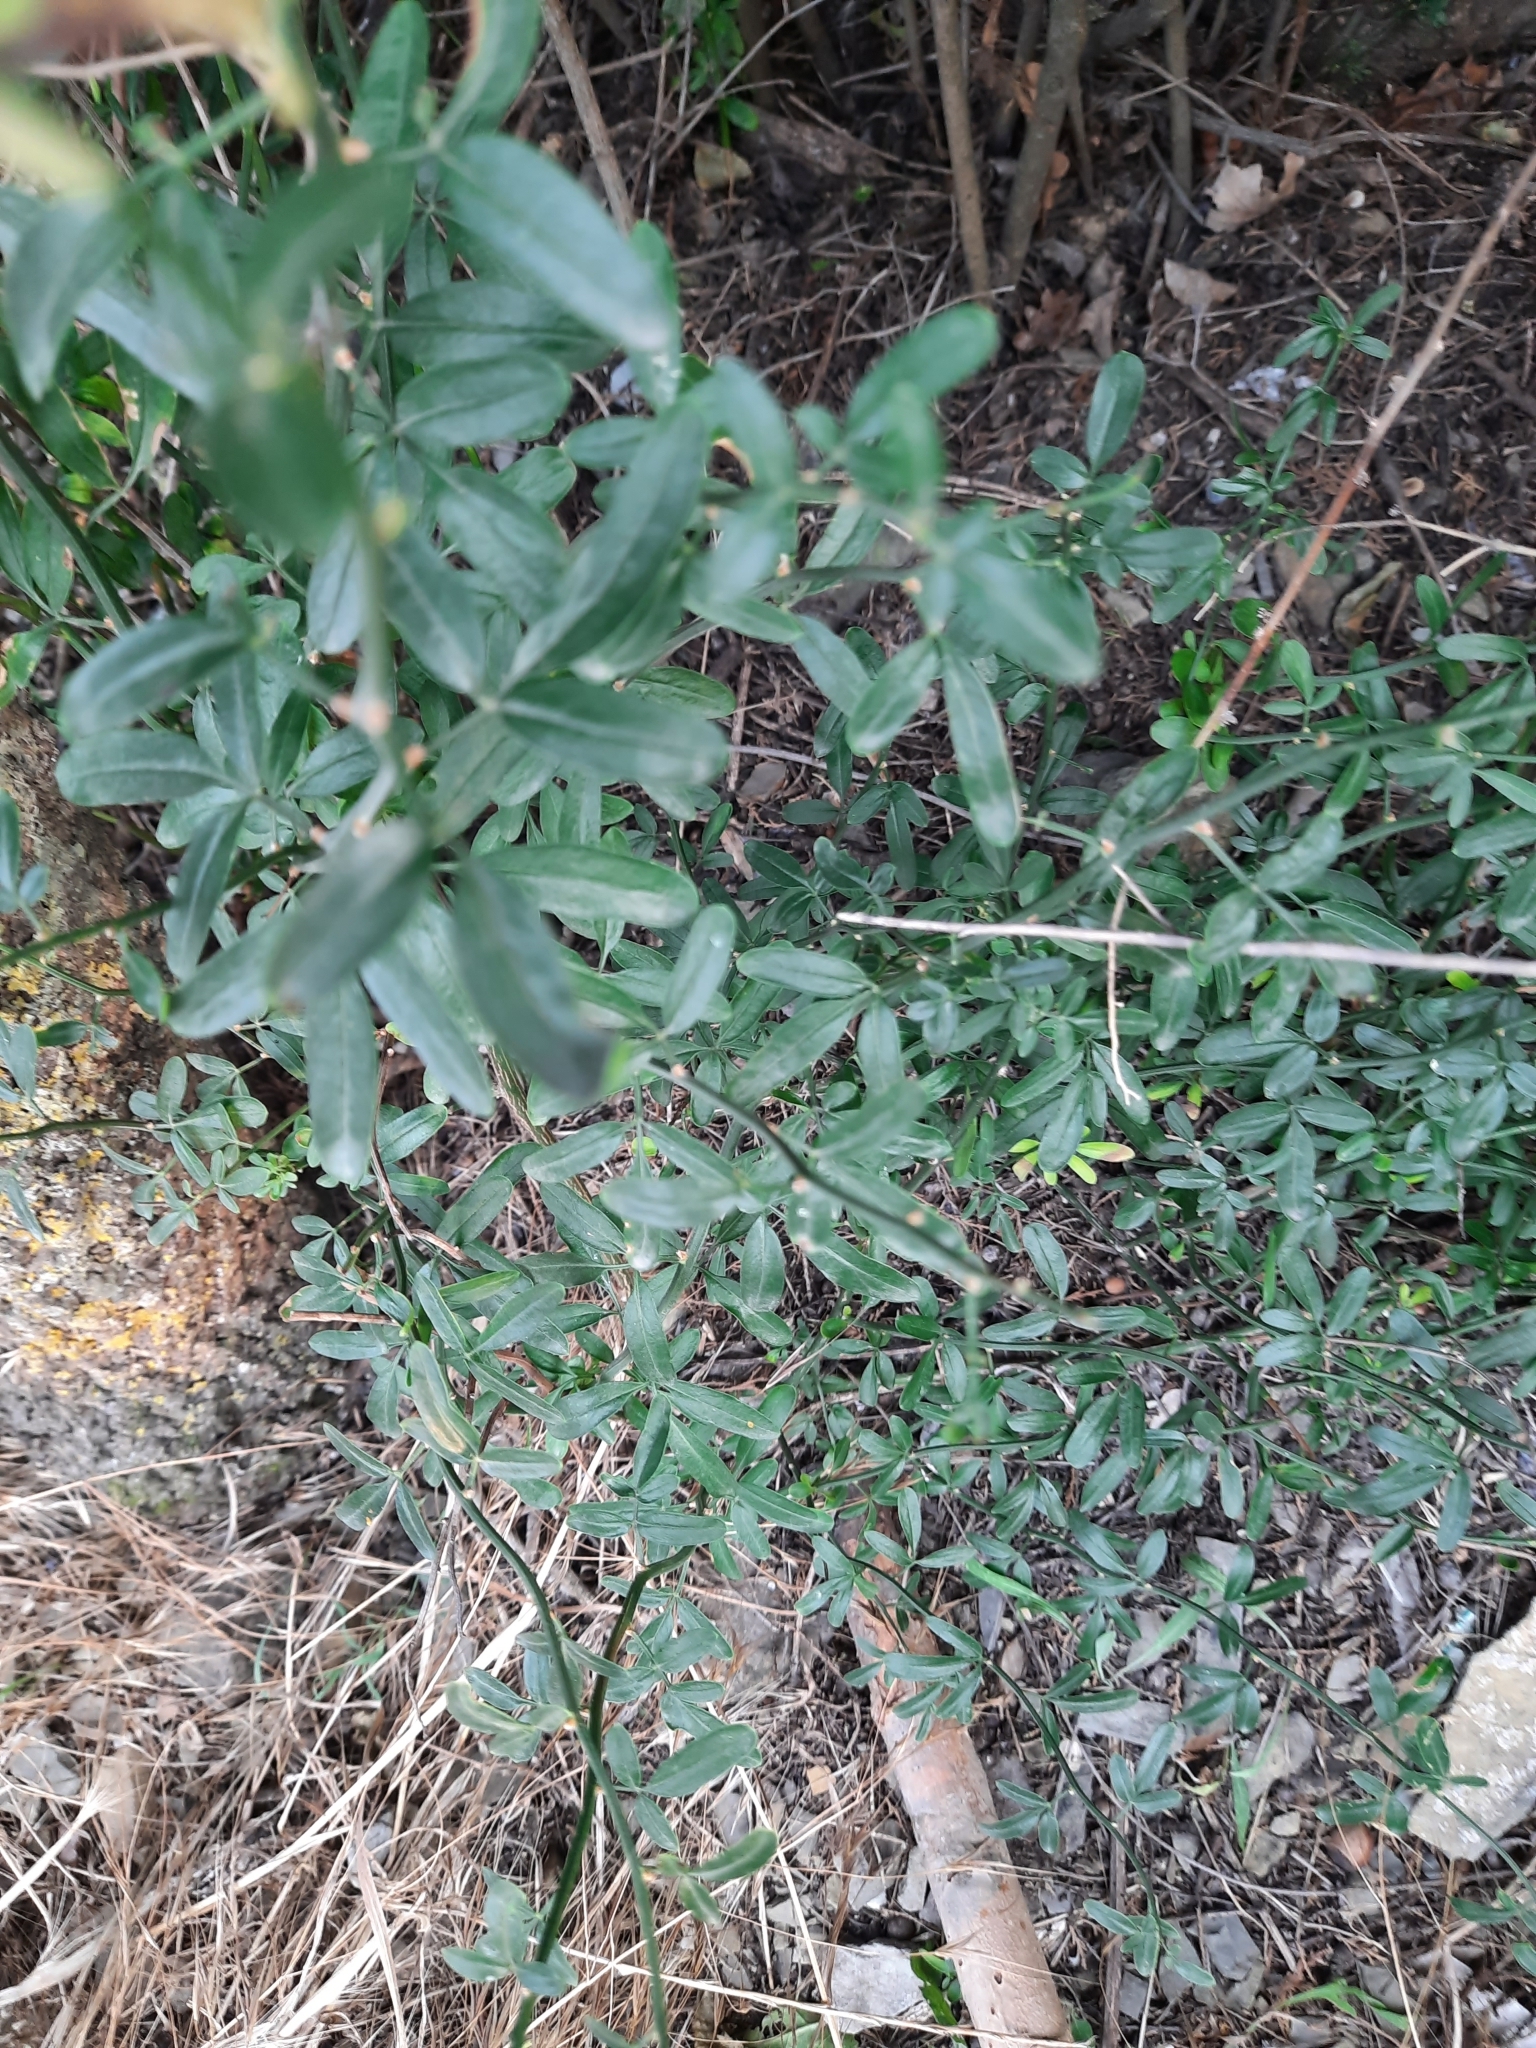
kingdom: Plantae
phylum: Tracheophyta
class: Magnoliopsida
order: Lamiales
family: Oleaceae
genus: Chrysojasminum
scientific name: Chrysojasminum fruticans
